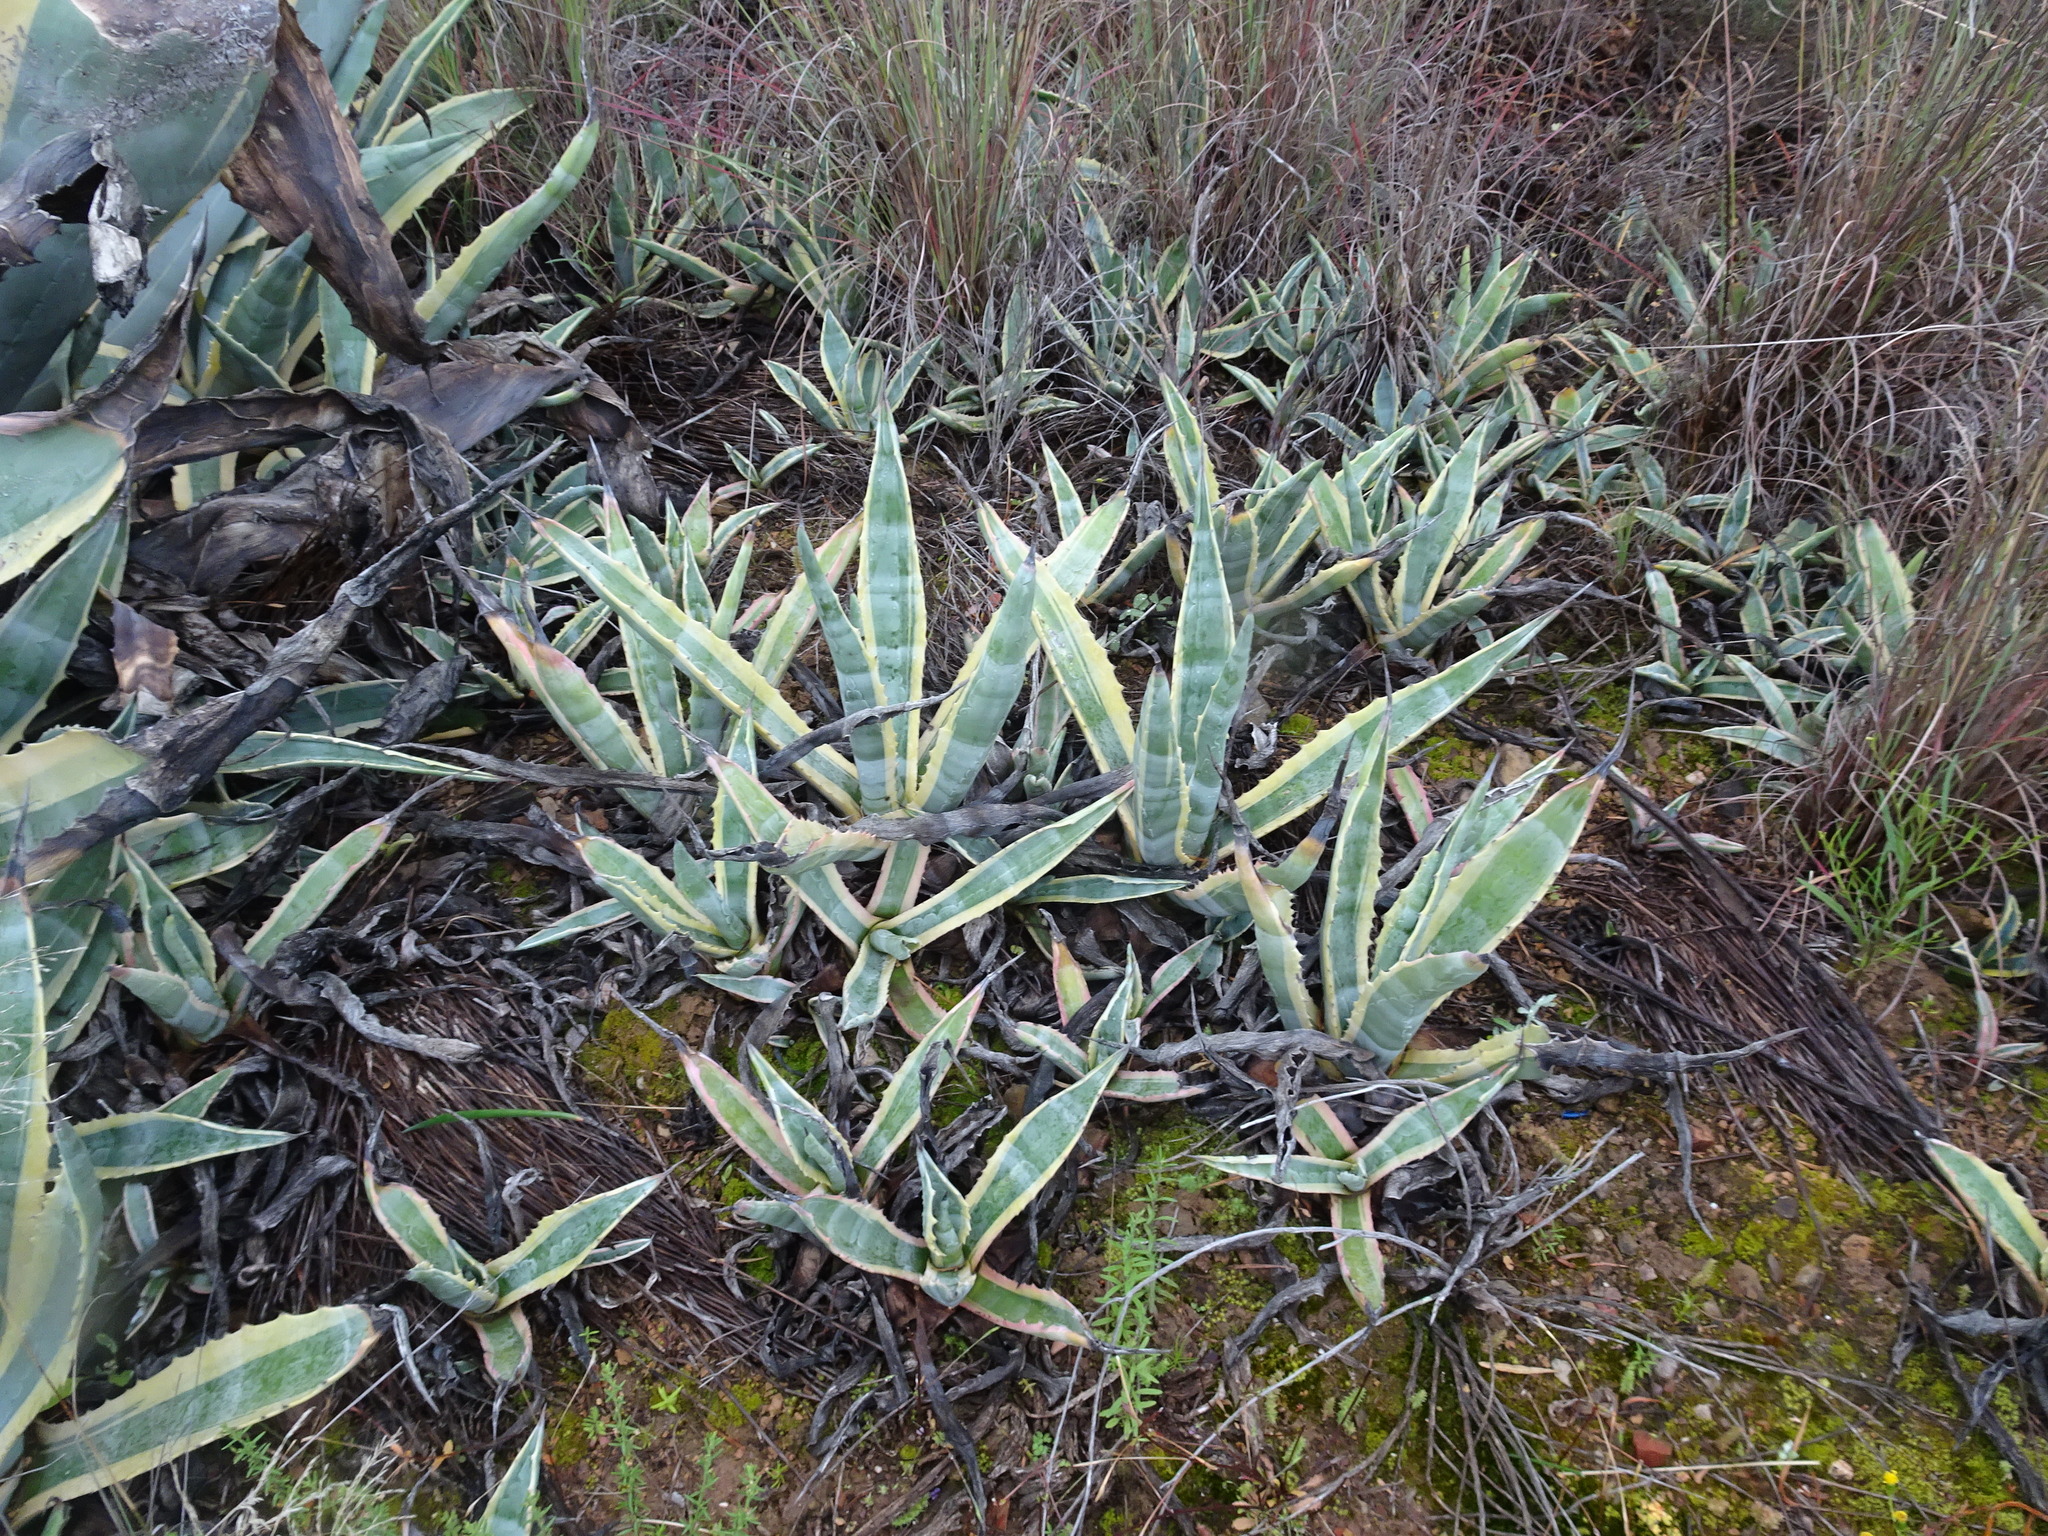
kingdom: Plantae
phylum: Tracheophyta
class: Liliopsida
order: Asparagales
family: Asparagaceae
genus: Agave
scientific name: Agave americana
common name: Centuryplant
